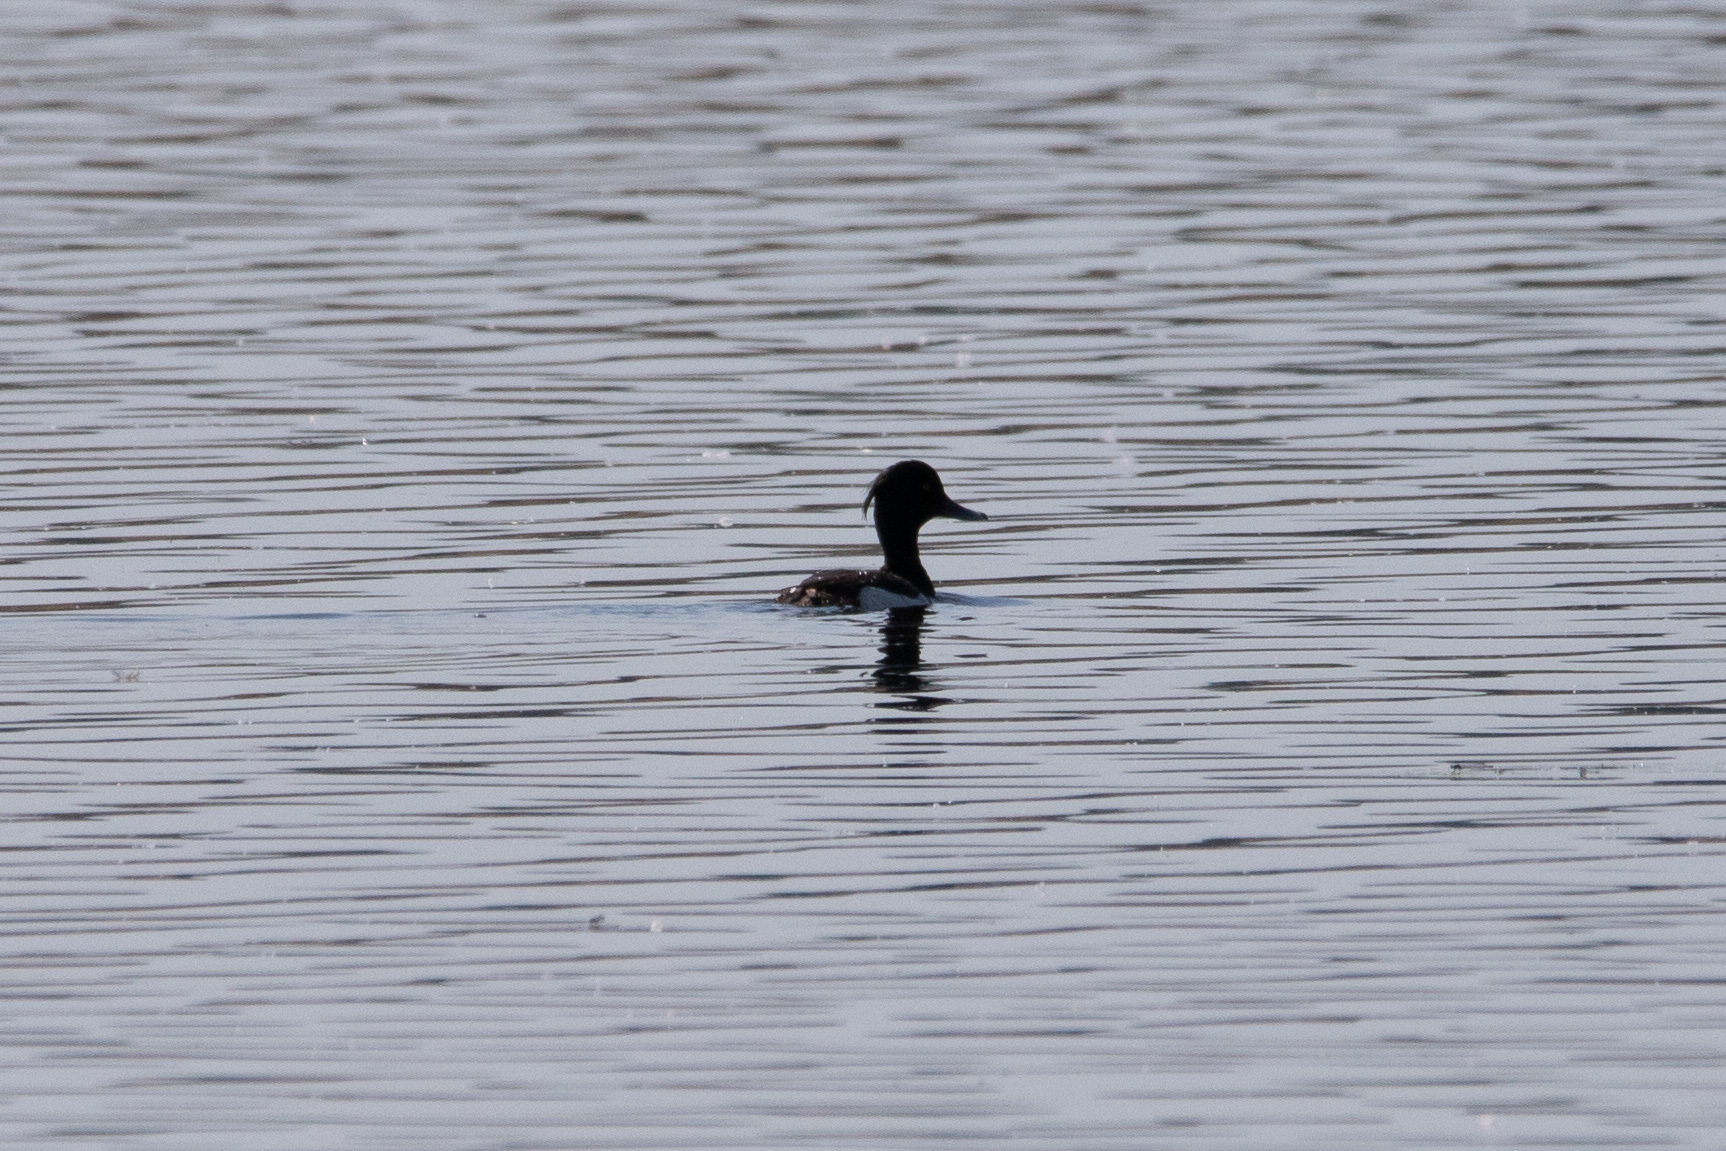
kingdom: Animalia
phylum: Chordata
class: Aves
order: Anseriformes
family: Anatidae
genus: Aythya
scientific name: Aythya fuligula
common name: Tufted duck
